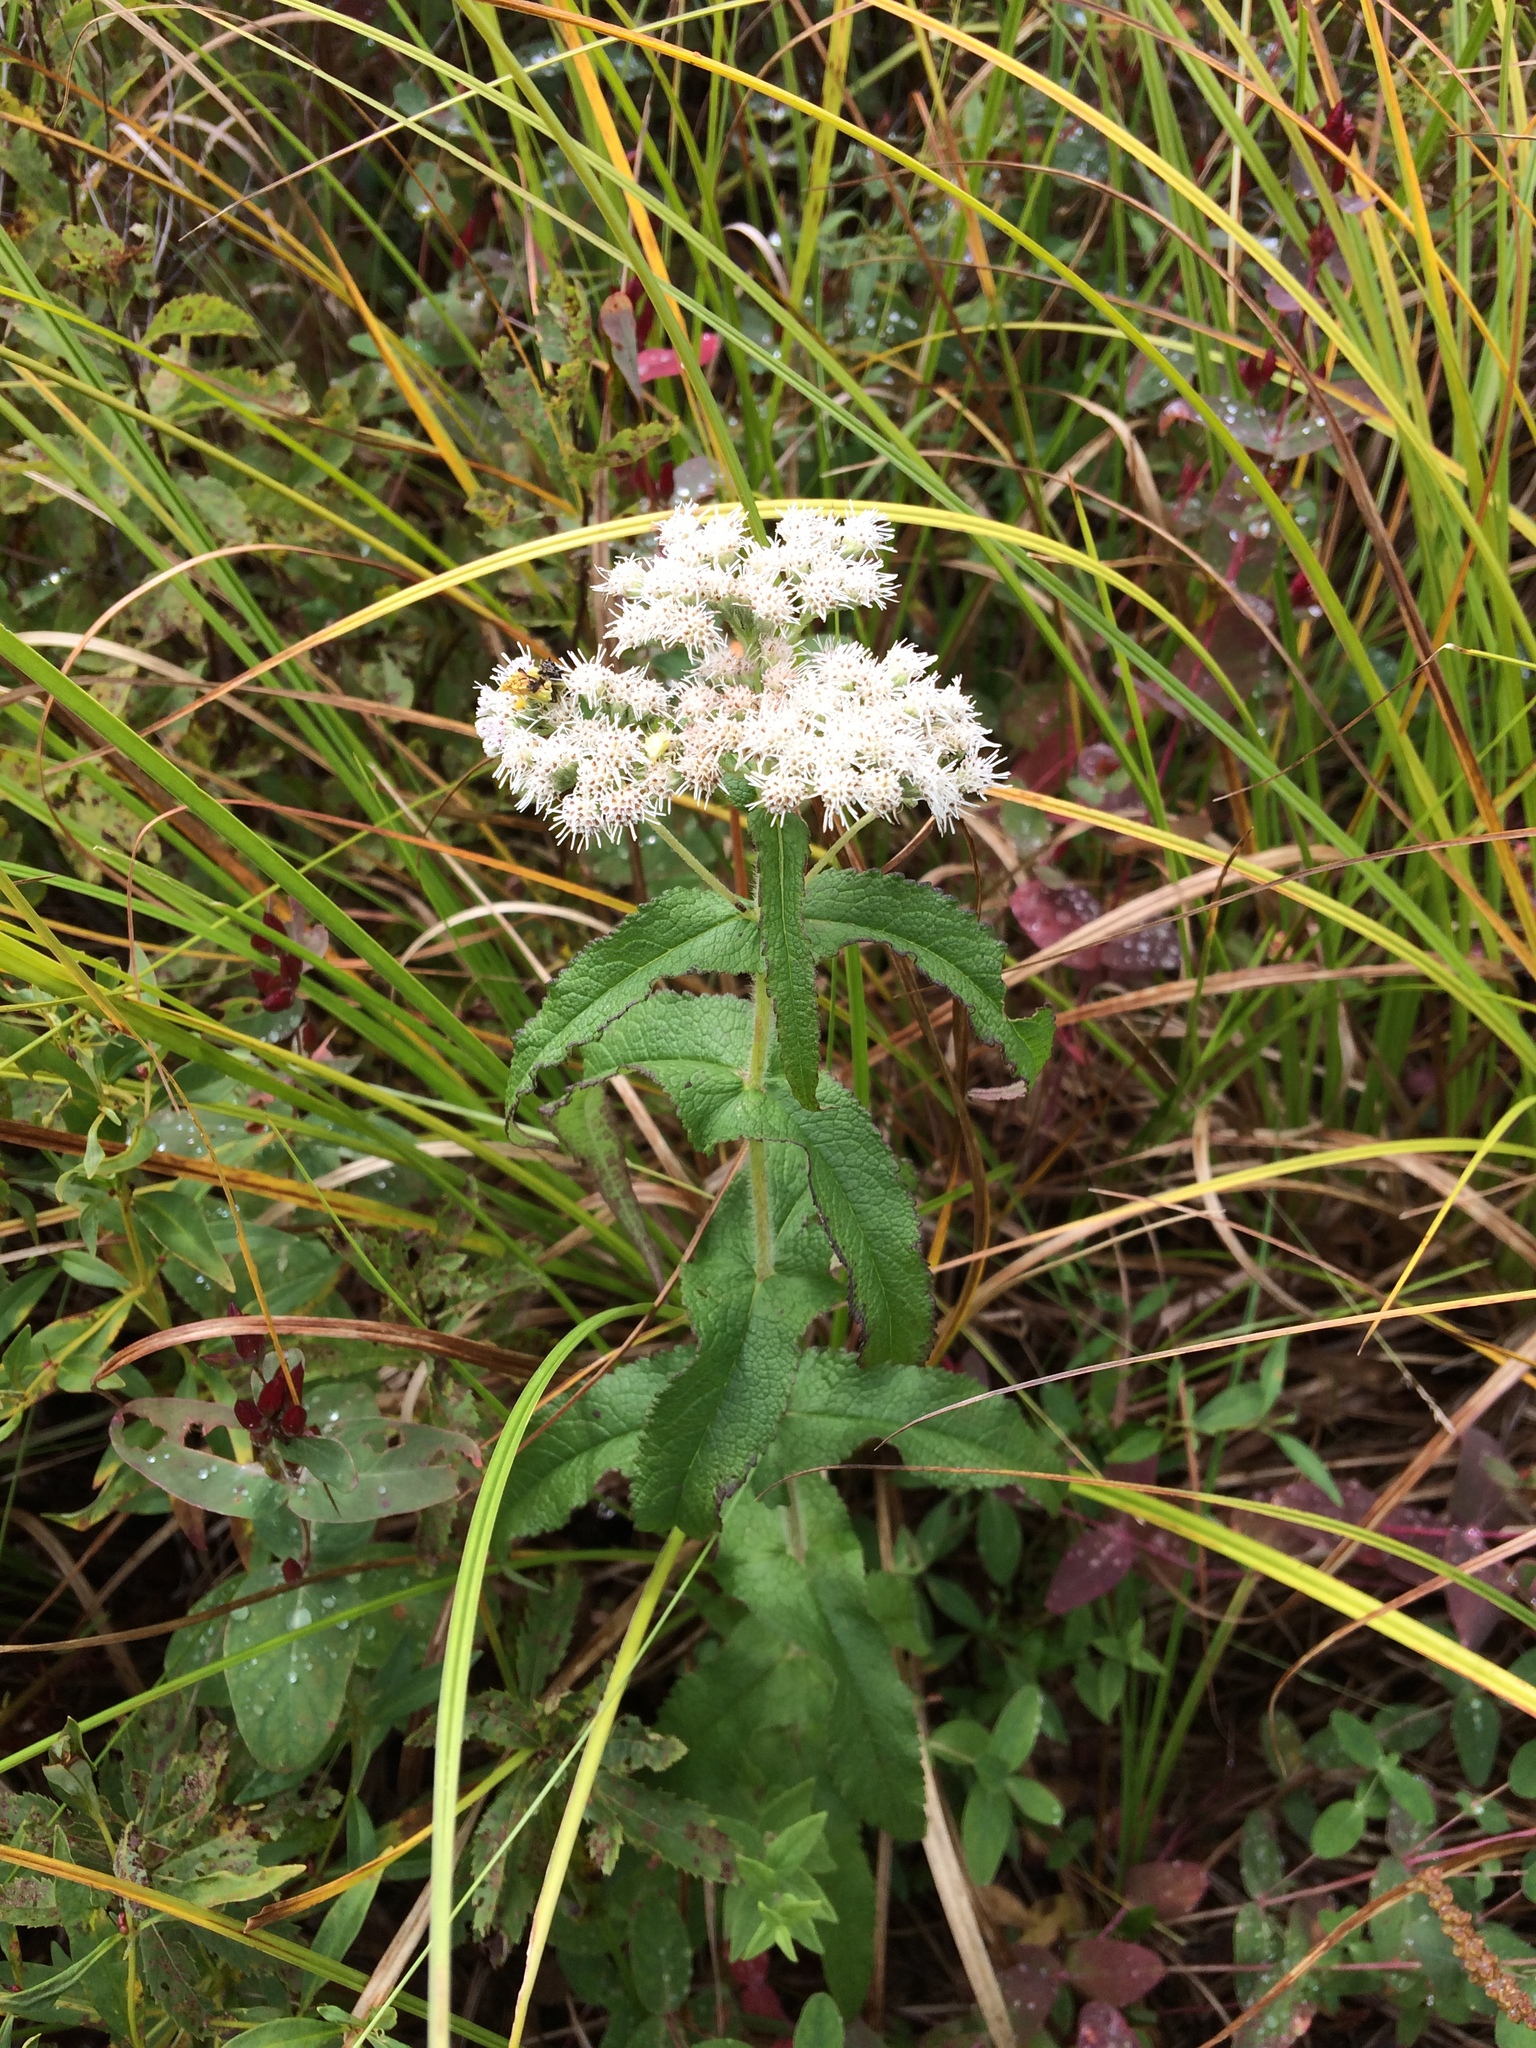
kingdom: Plantae
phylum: Tracheophyta
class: Magnoliopsida
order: Asterales
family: Asteraceae
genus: Eupatorium
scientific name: Eupatorium perfoliatum
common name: Boneset
